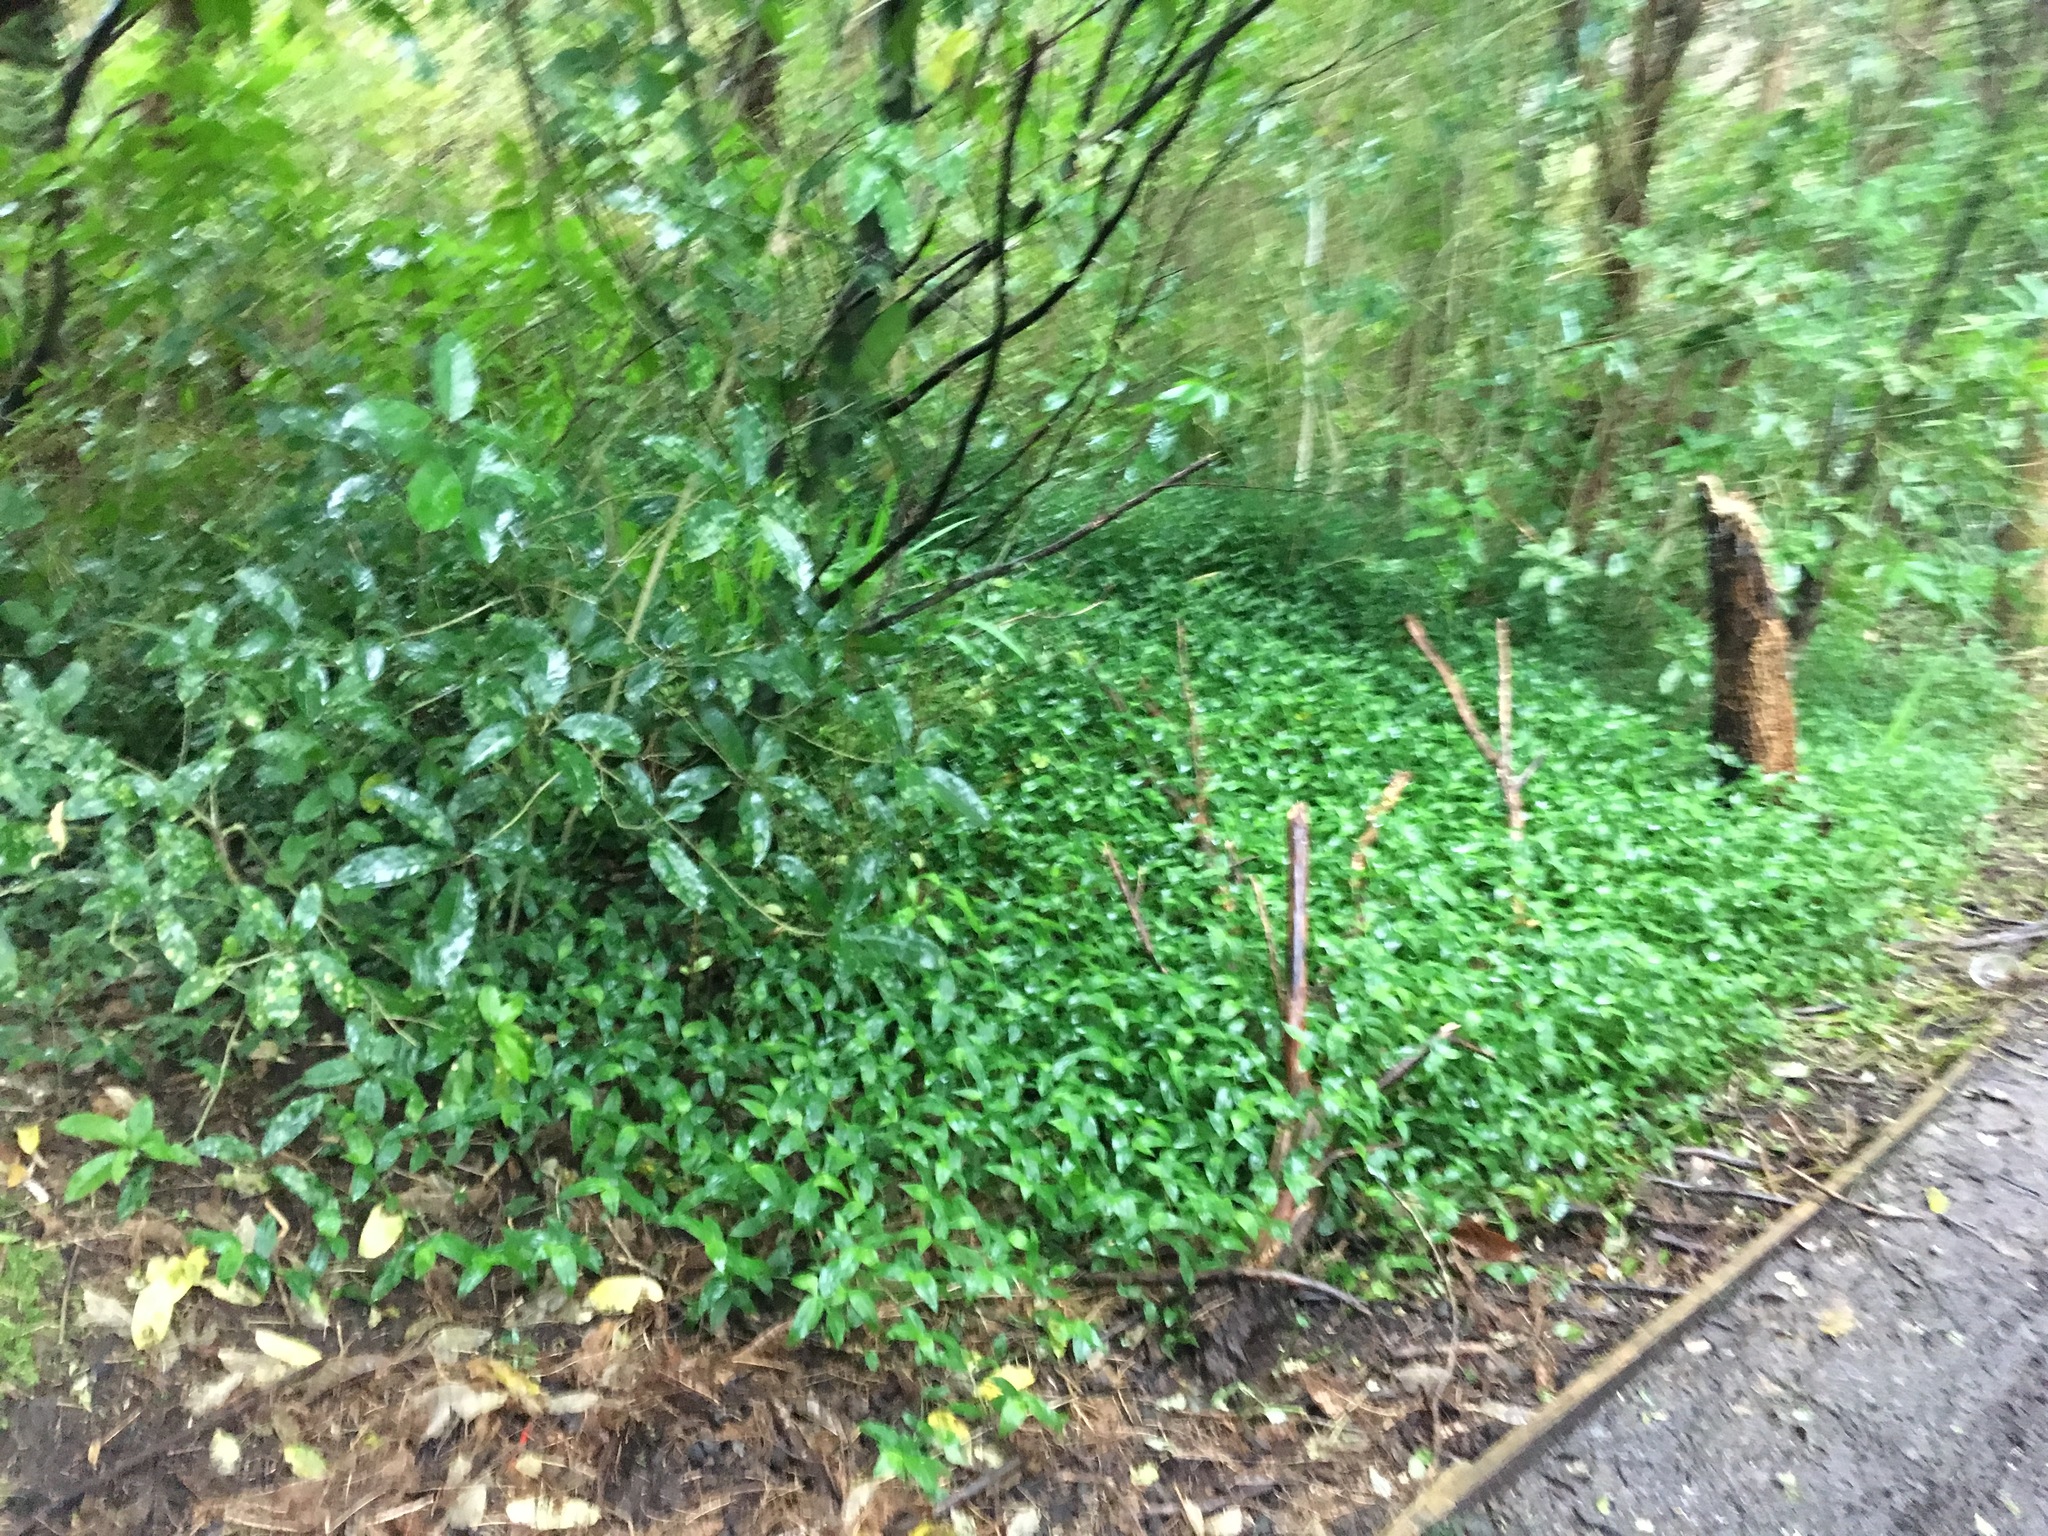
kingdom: Plantae
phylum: Tracheophyta
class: Magnoliopsida
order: Malpighiales
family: Violaceae
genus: Melicytus
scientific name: Melicytus ramiflorus
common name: Mahoe
